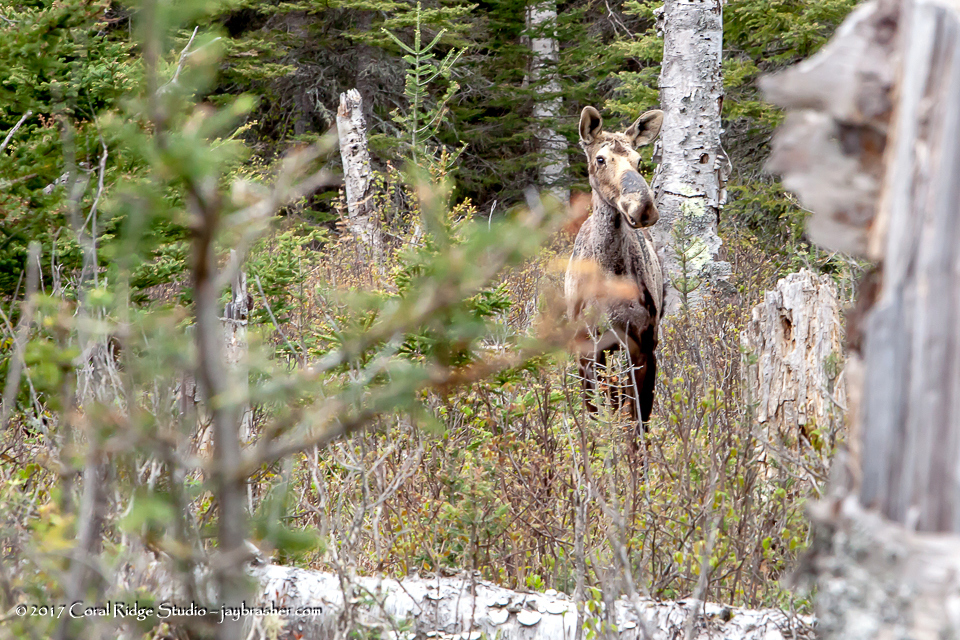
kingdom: Animalia
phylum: Chordata
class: Mammalia
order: Artiodactyla
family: Cervidae
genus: Alces
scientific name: Alces alces
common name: Moose
